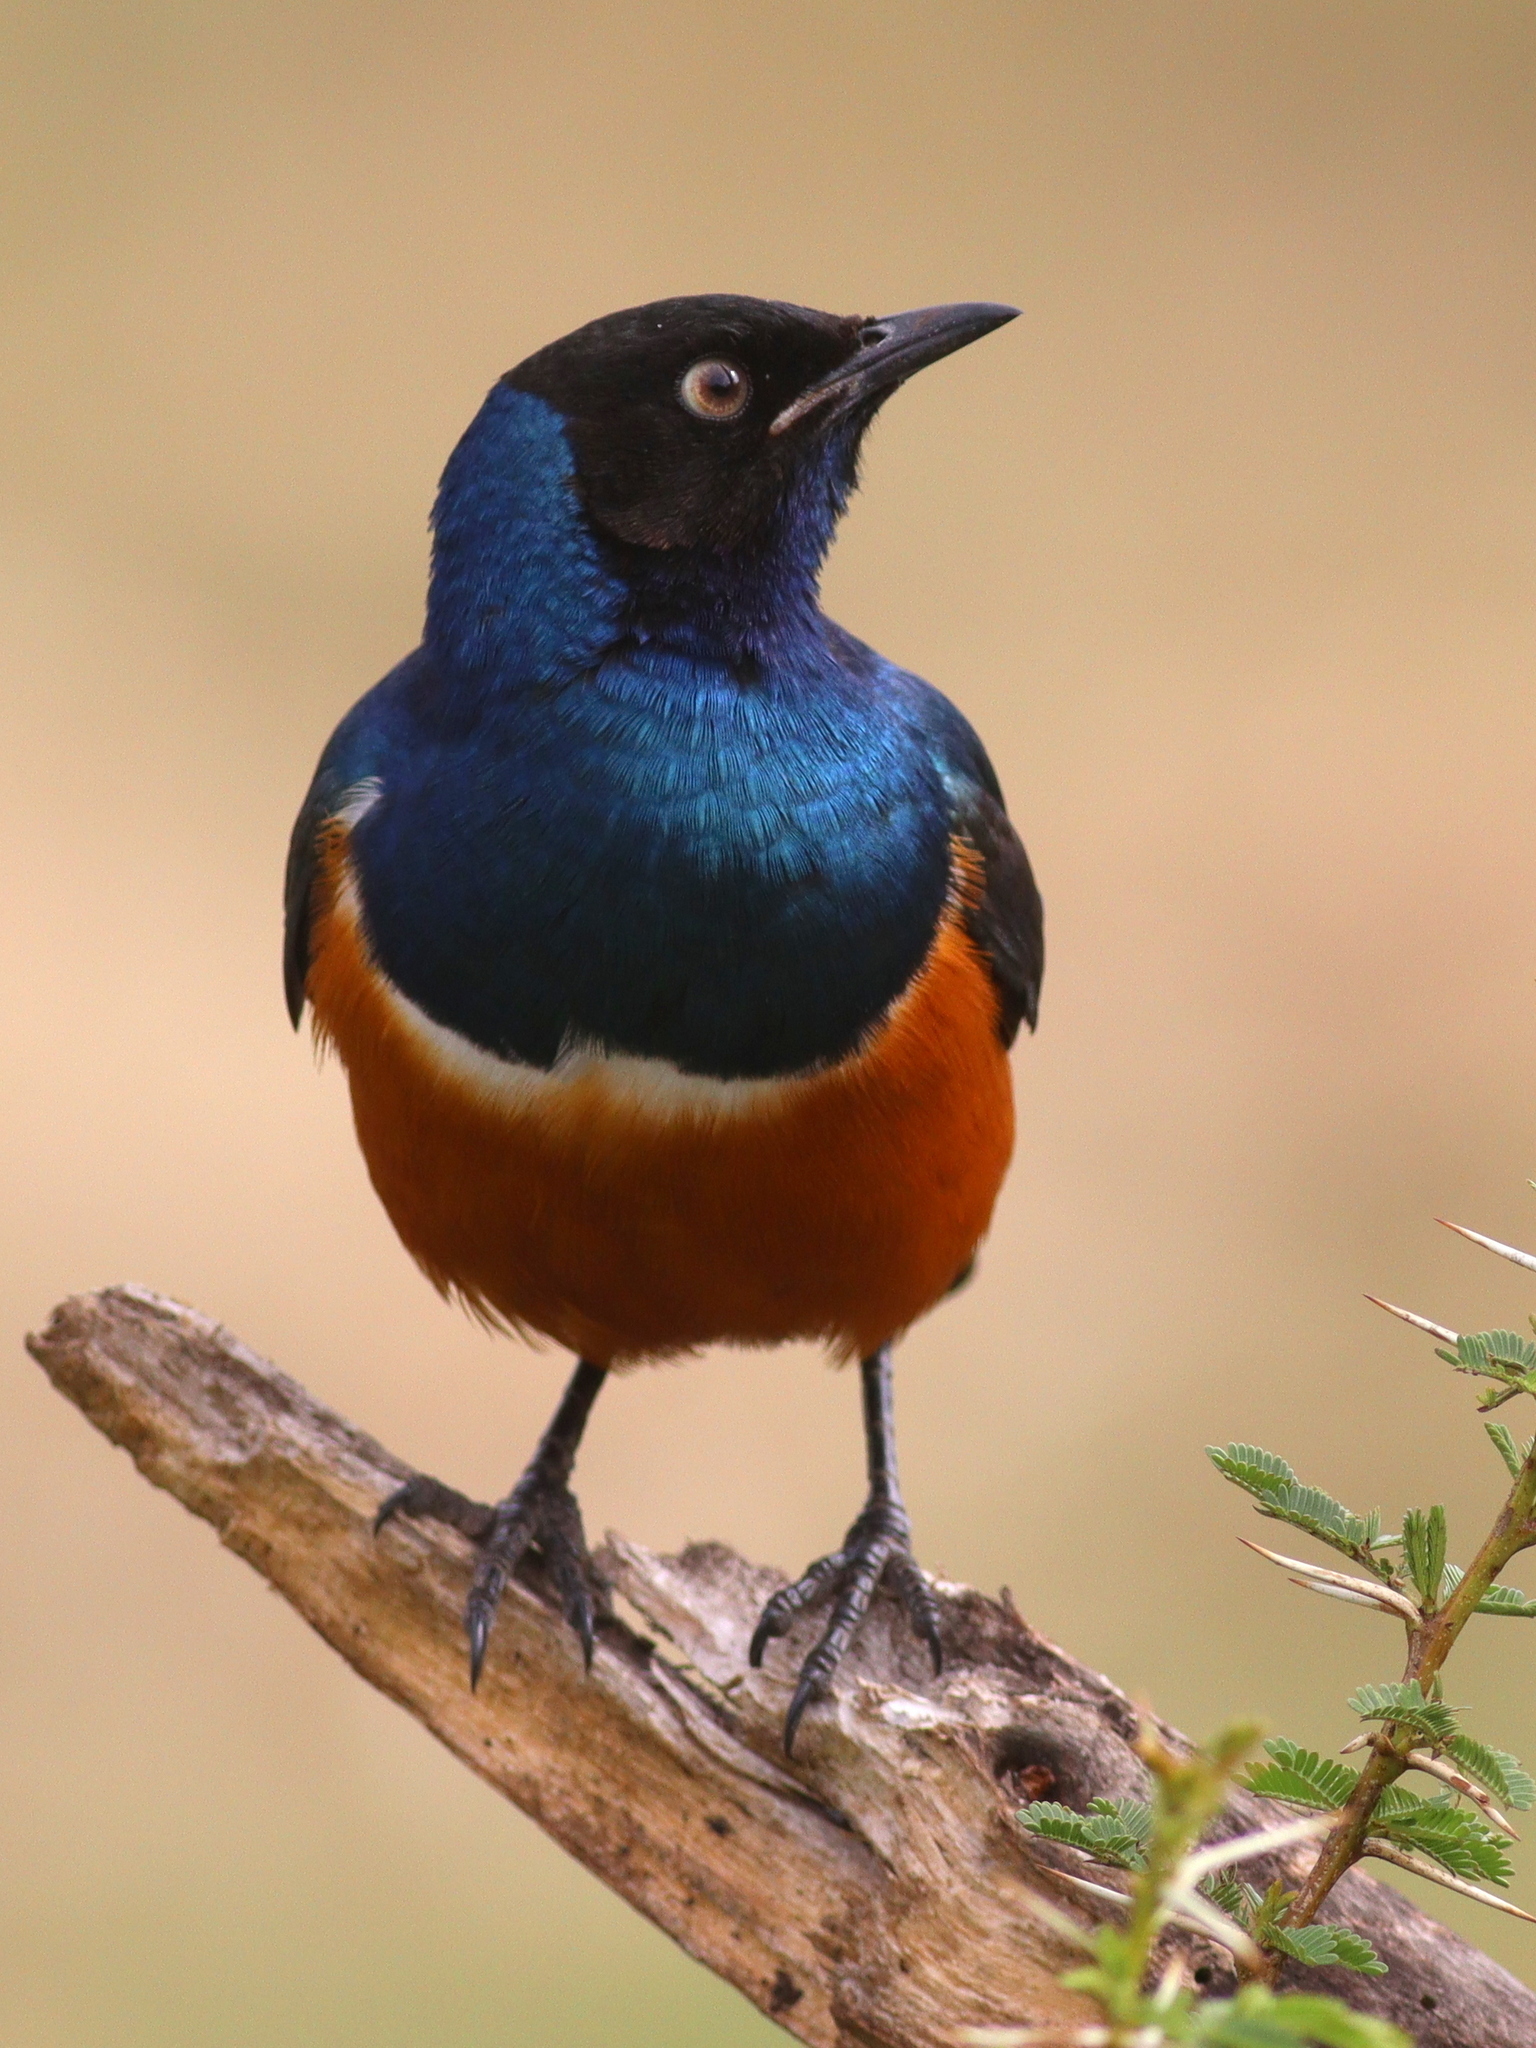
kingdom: Animalia
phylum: Chordata
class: Aves
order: Passeriformes
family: Sturnidae
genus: Lamprotornis
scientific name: Lamprotornis superbus
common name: Superb starling
